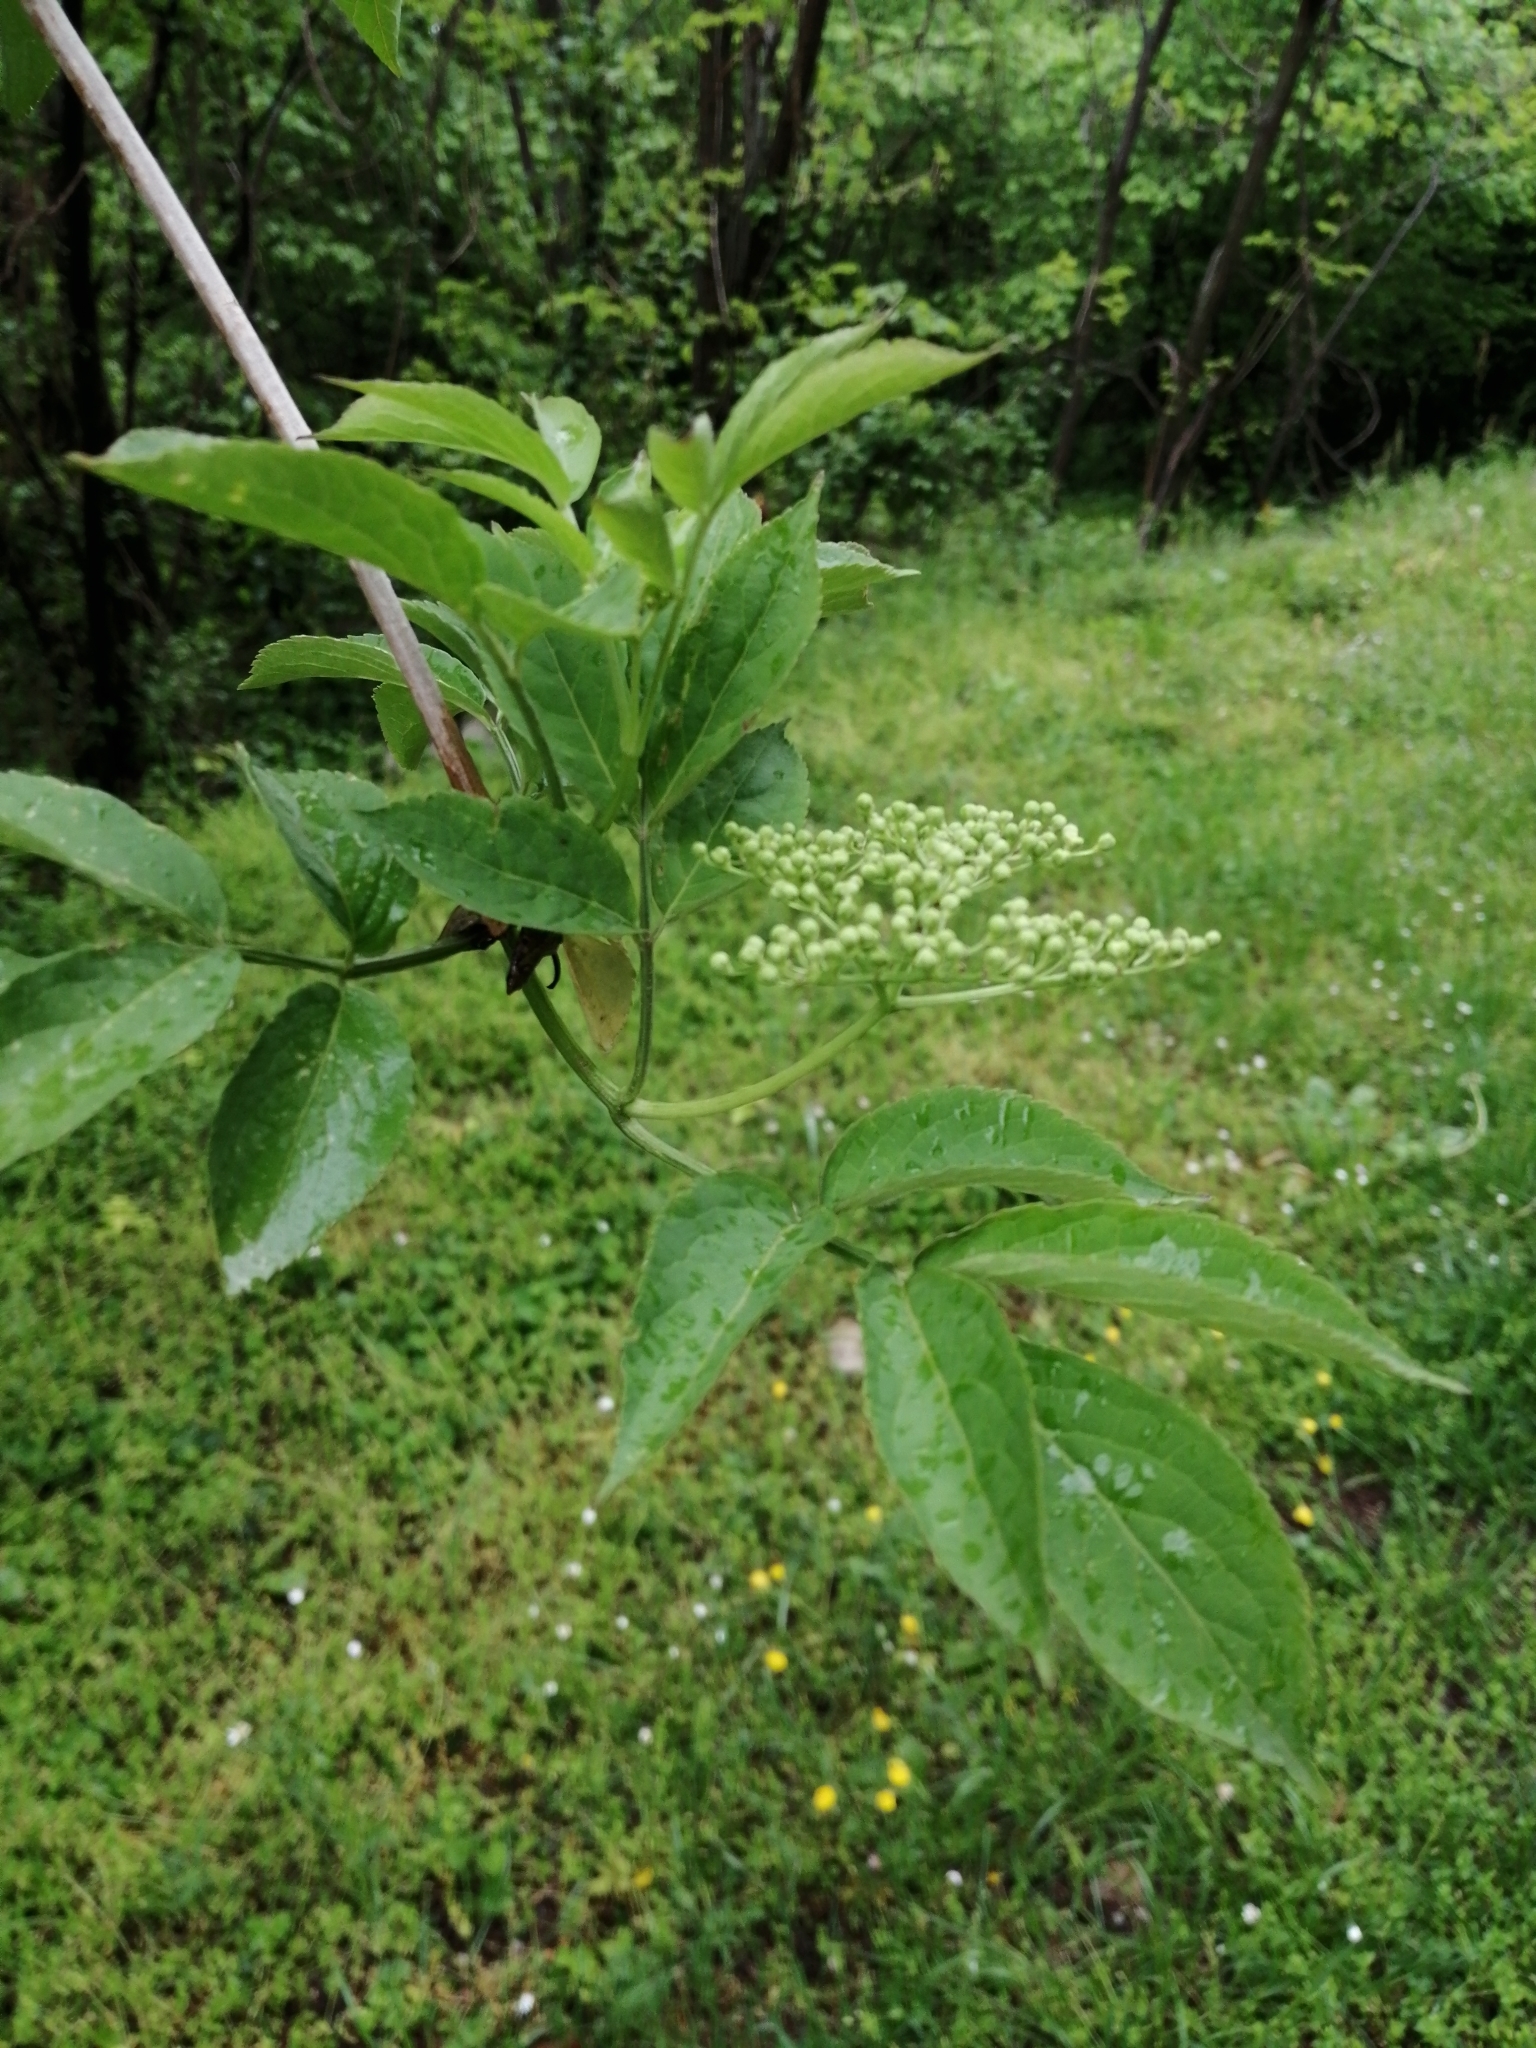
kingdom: Plantae
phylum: Tracheophyta
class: Magnoliopsida
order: Dipsacales
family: Viburnaceae
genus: Sambucus
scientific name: Sambucus nigra
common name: Elder
